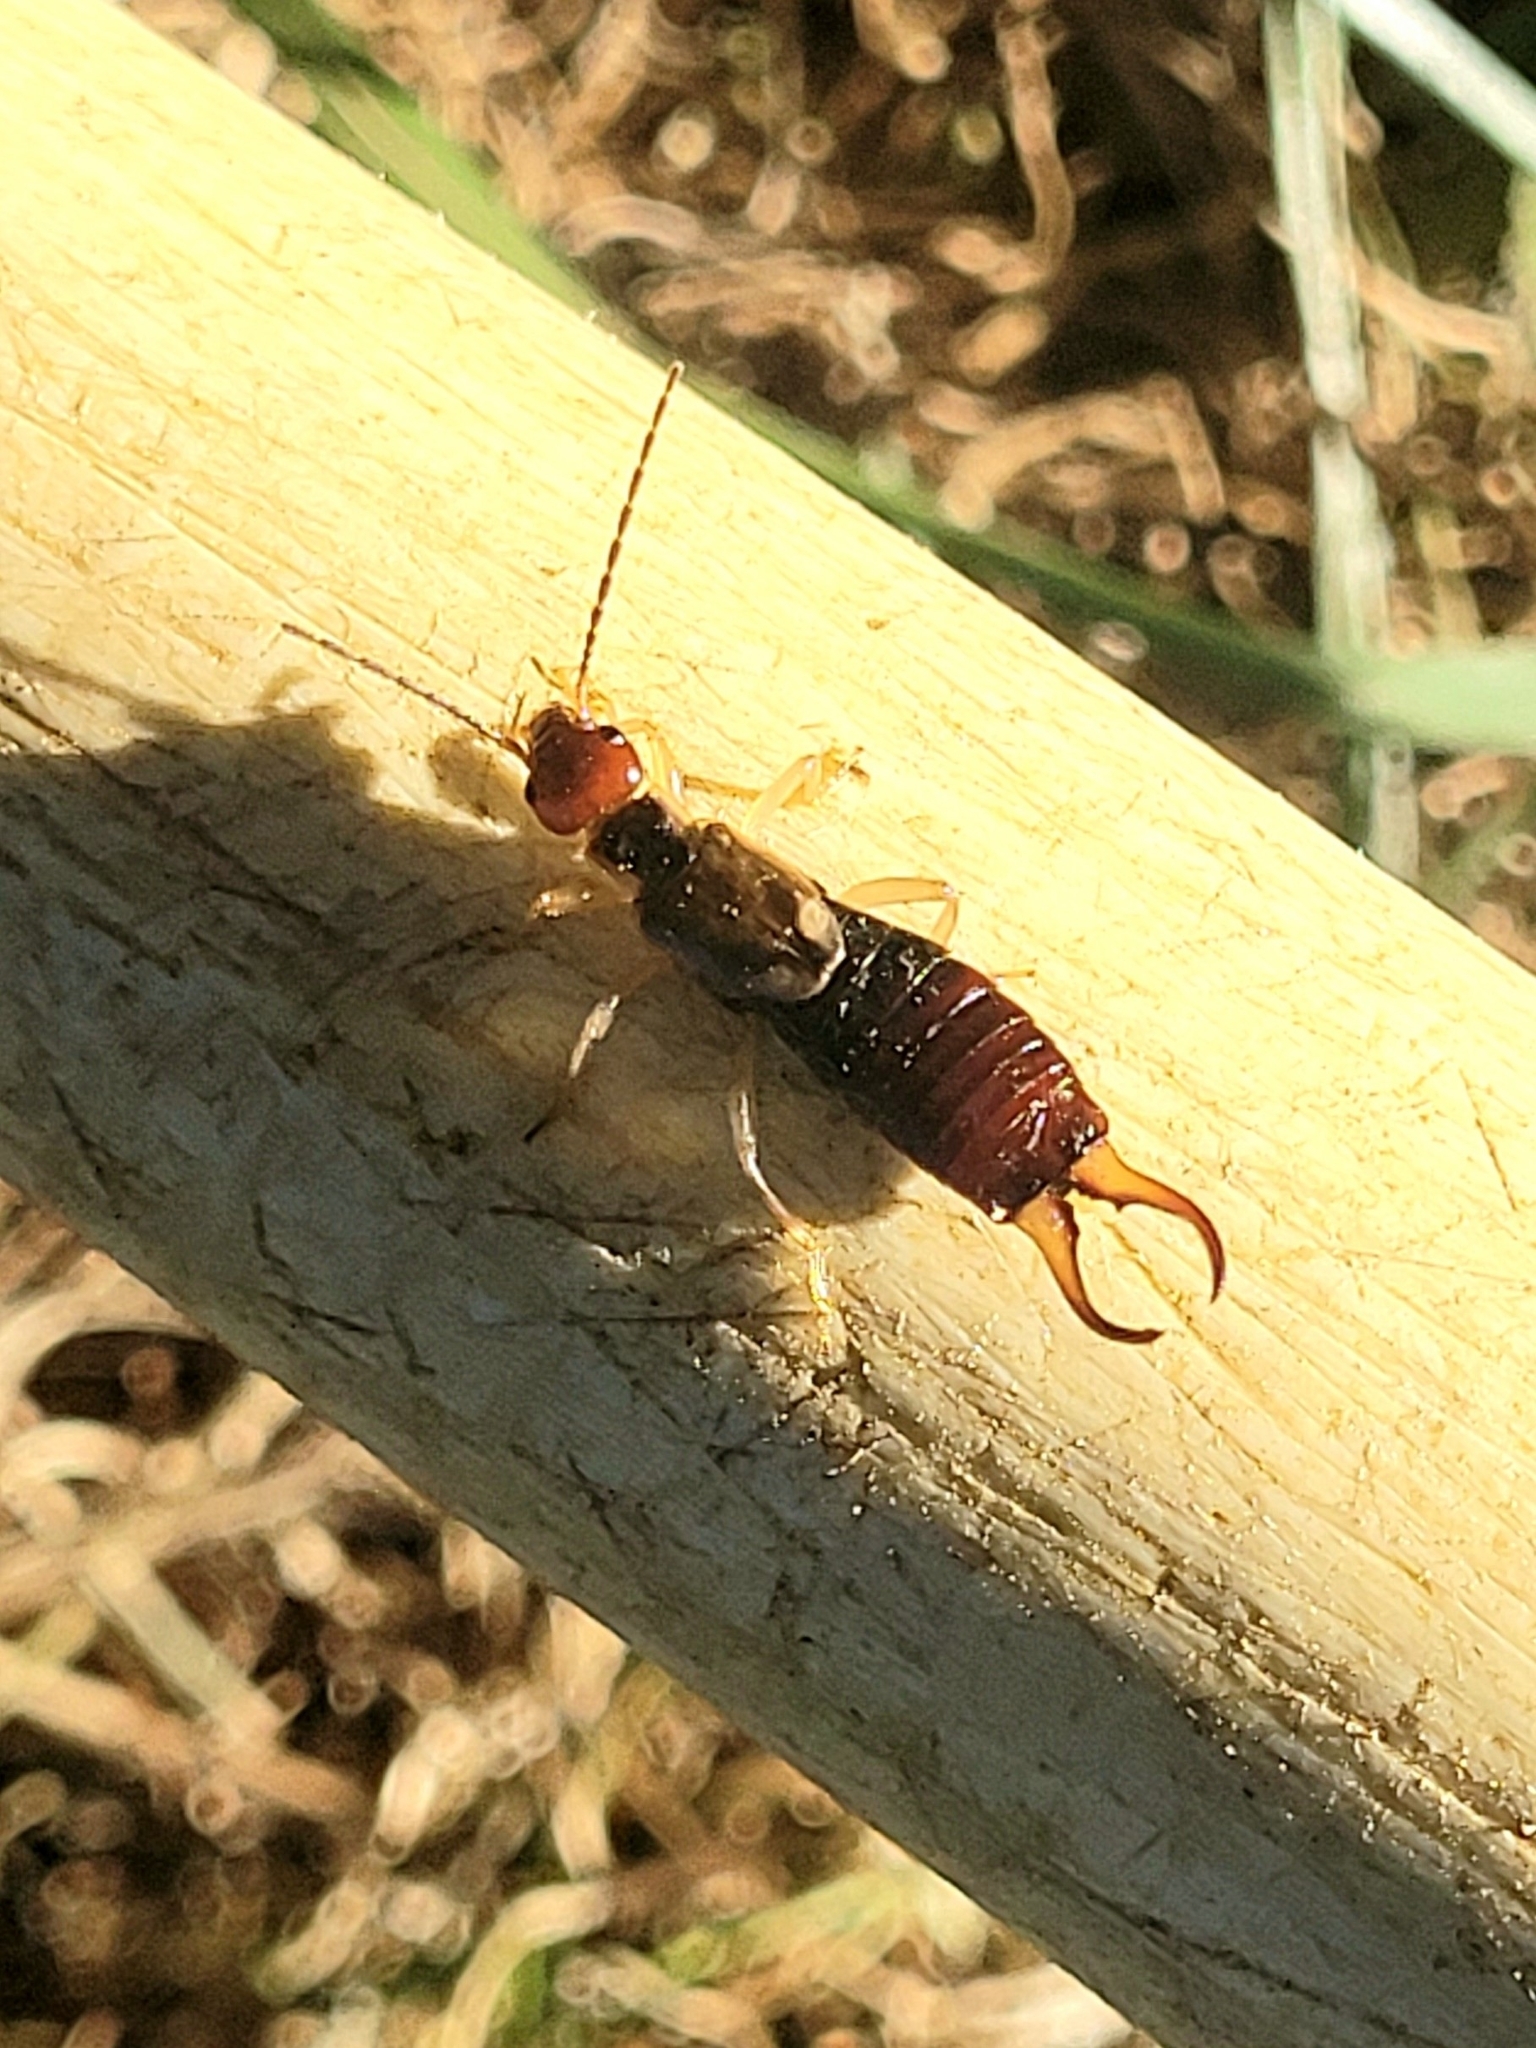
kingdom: Animalia
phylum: Arthropoda
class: Insecta
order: Dermaptera
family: Forficulidae
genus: Forficula
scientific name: Forficula
